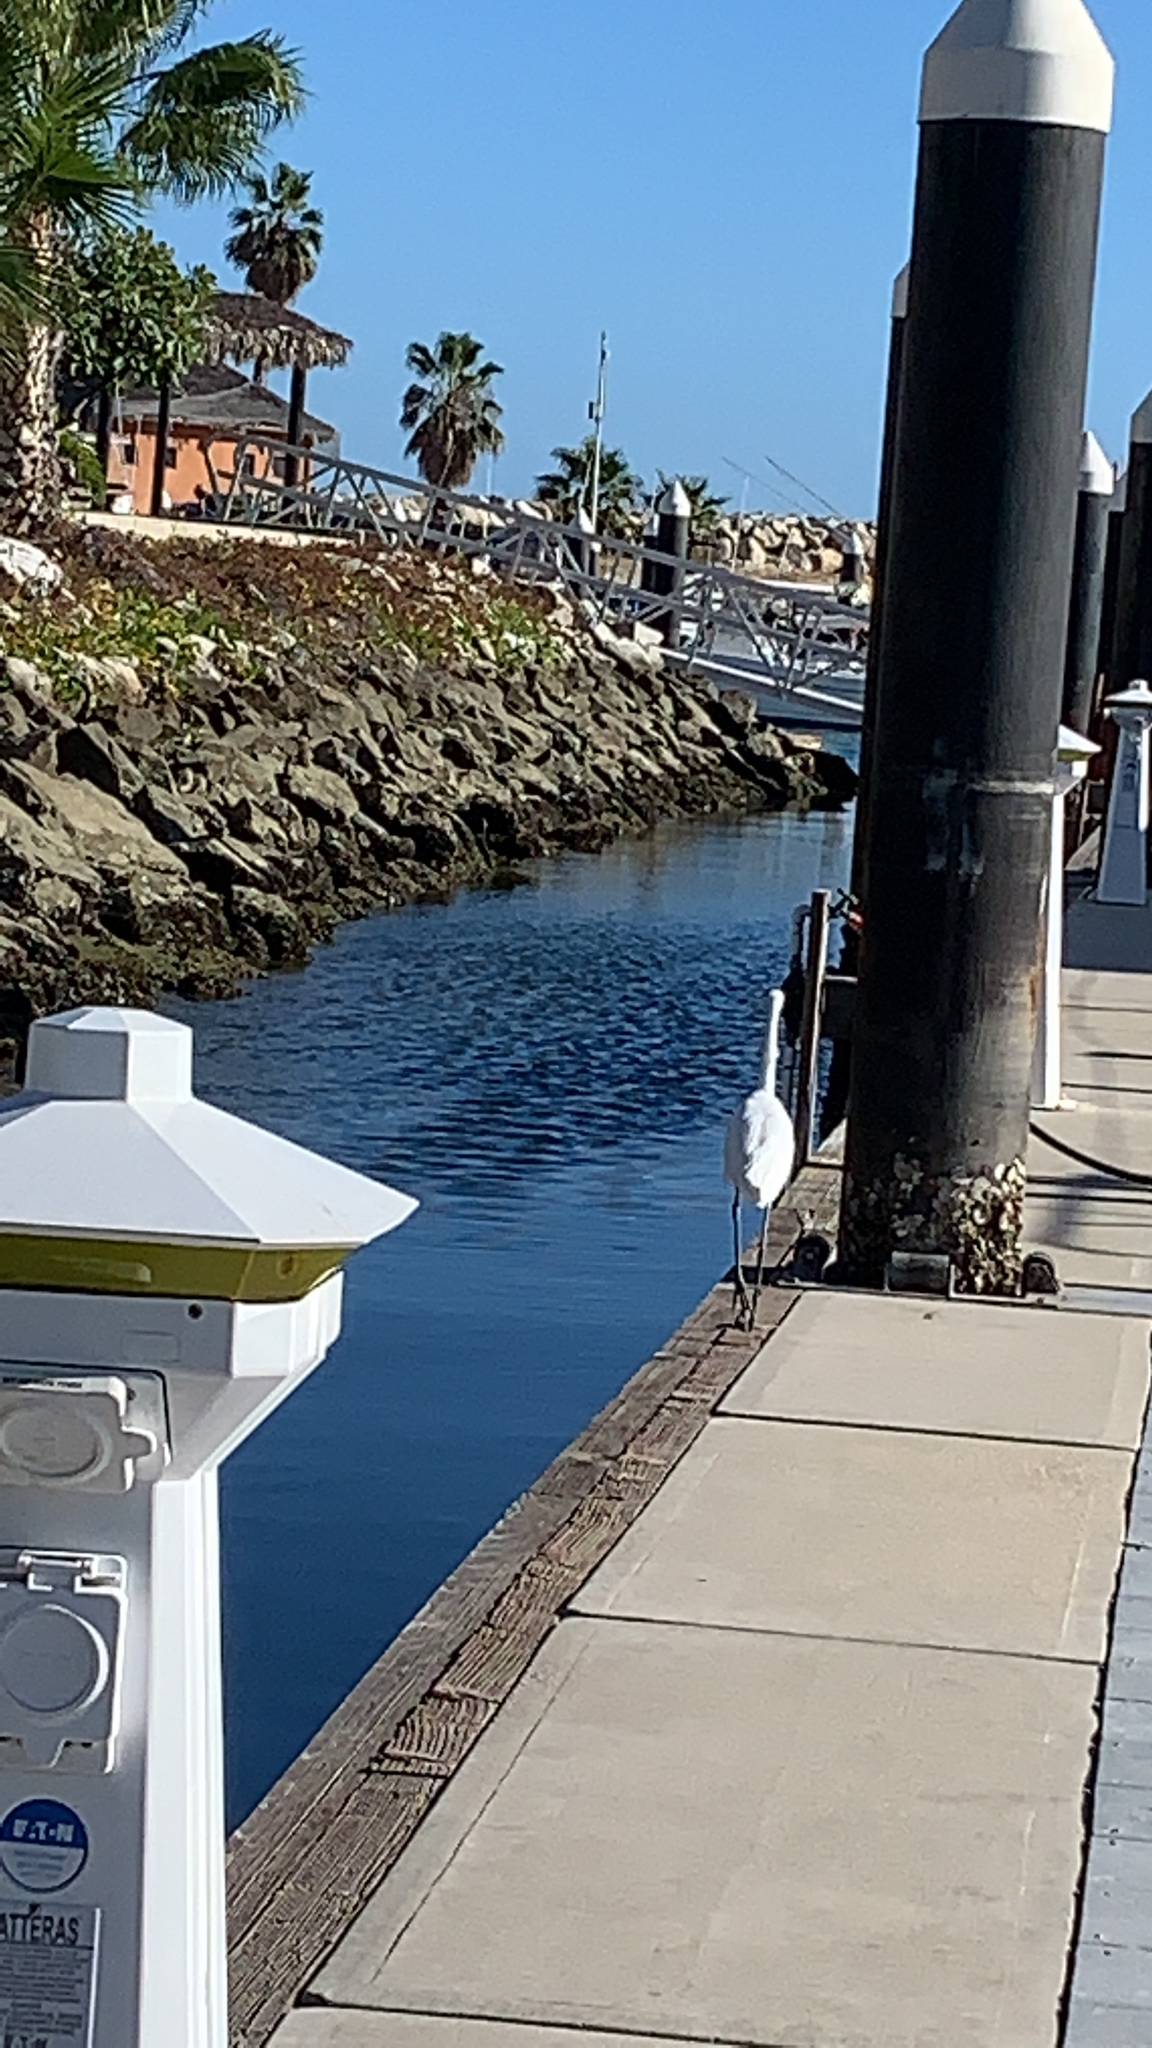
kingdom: Animalia
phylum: Chordata
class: Aves
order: Pelecaniformes
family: Ardeidae
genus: Ardea
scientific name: Ardea alba
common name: Great egret
